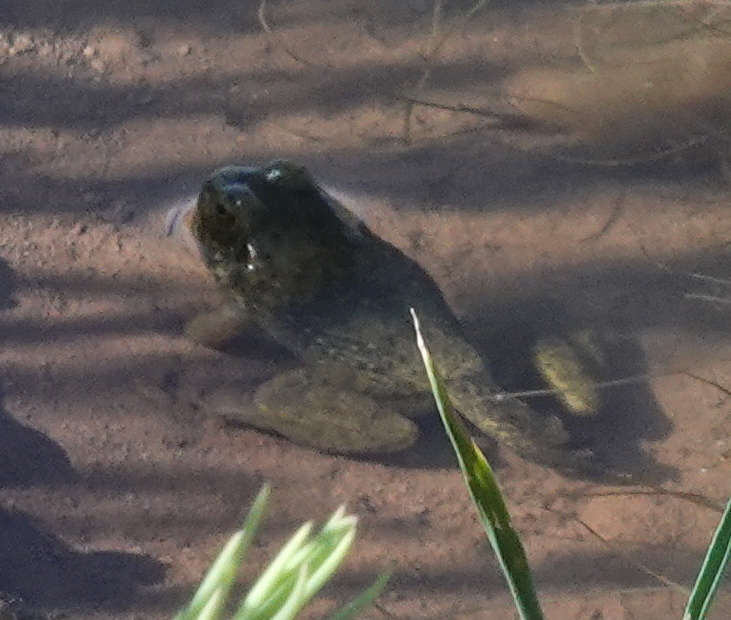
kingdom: Animalia
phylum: Chordata
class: Amphibia
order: Anura
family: Ranidae
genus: Lithobates
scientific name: Lithobates catesbeianus
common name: American bullfrog
